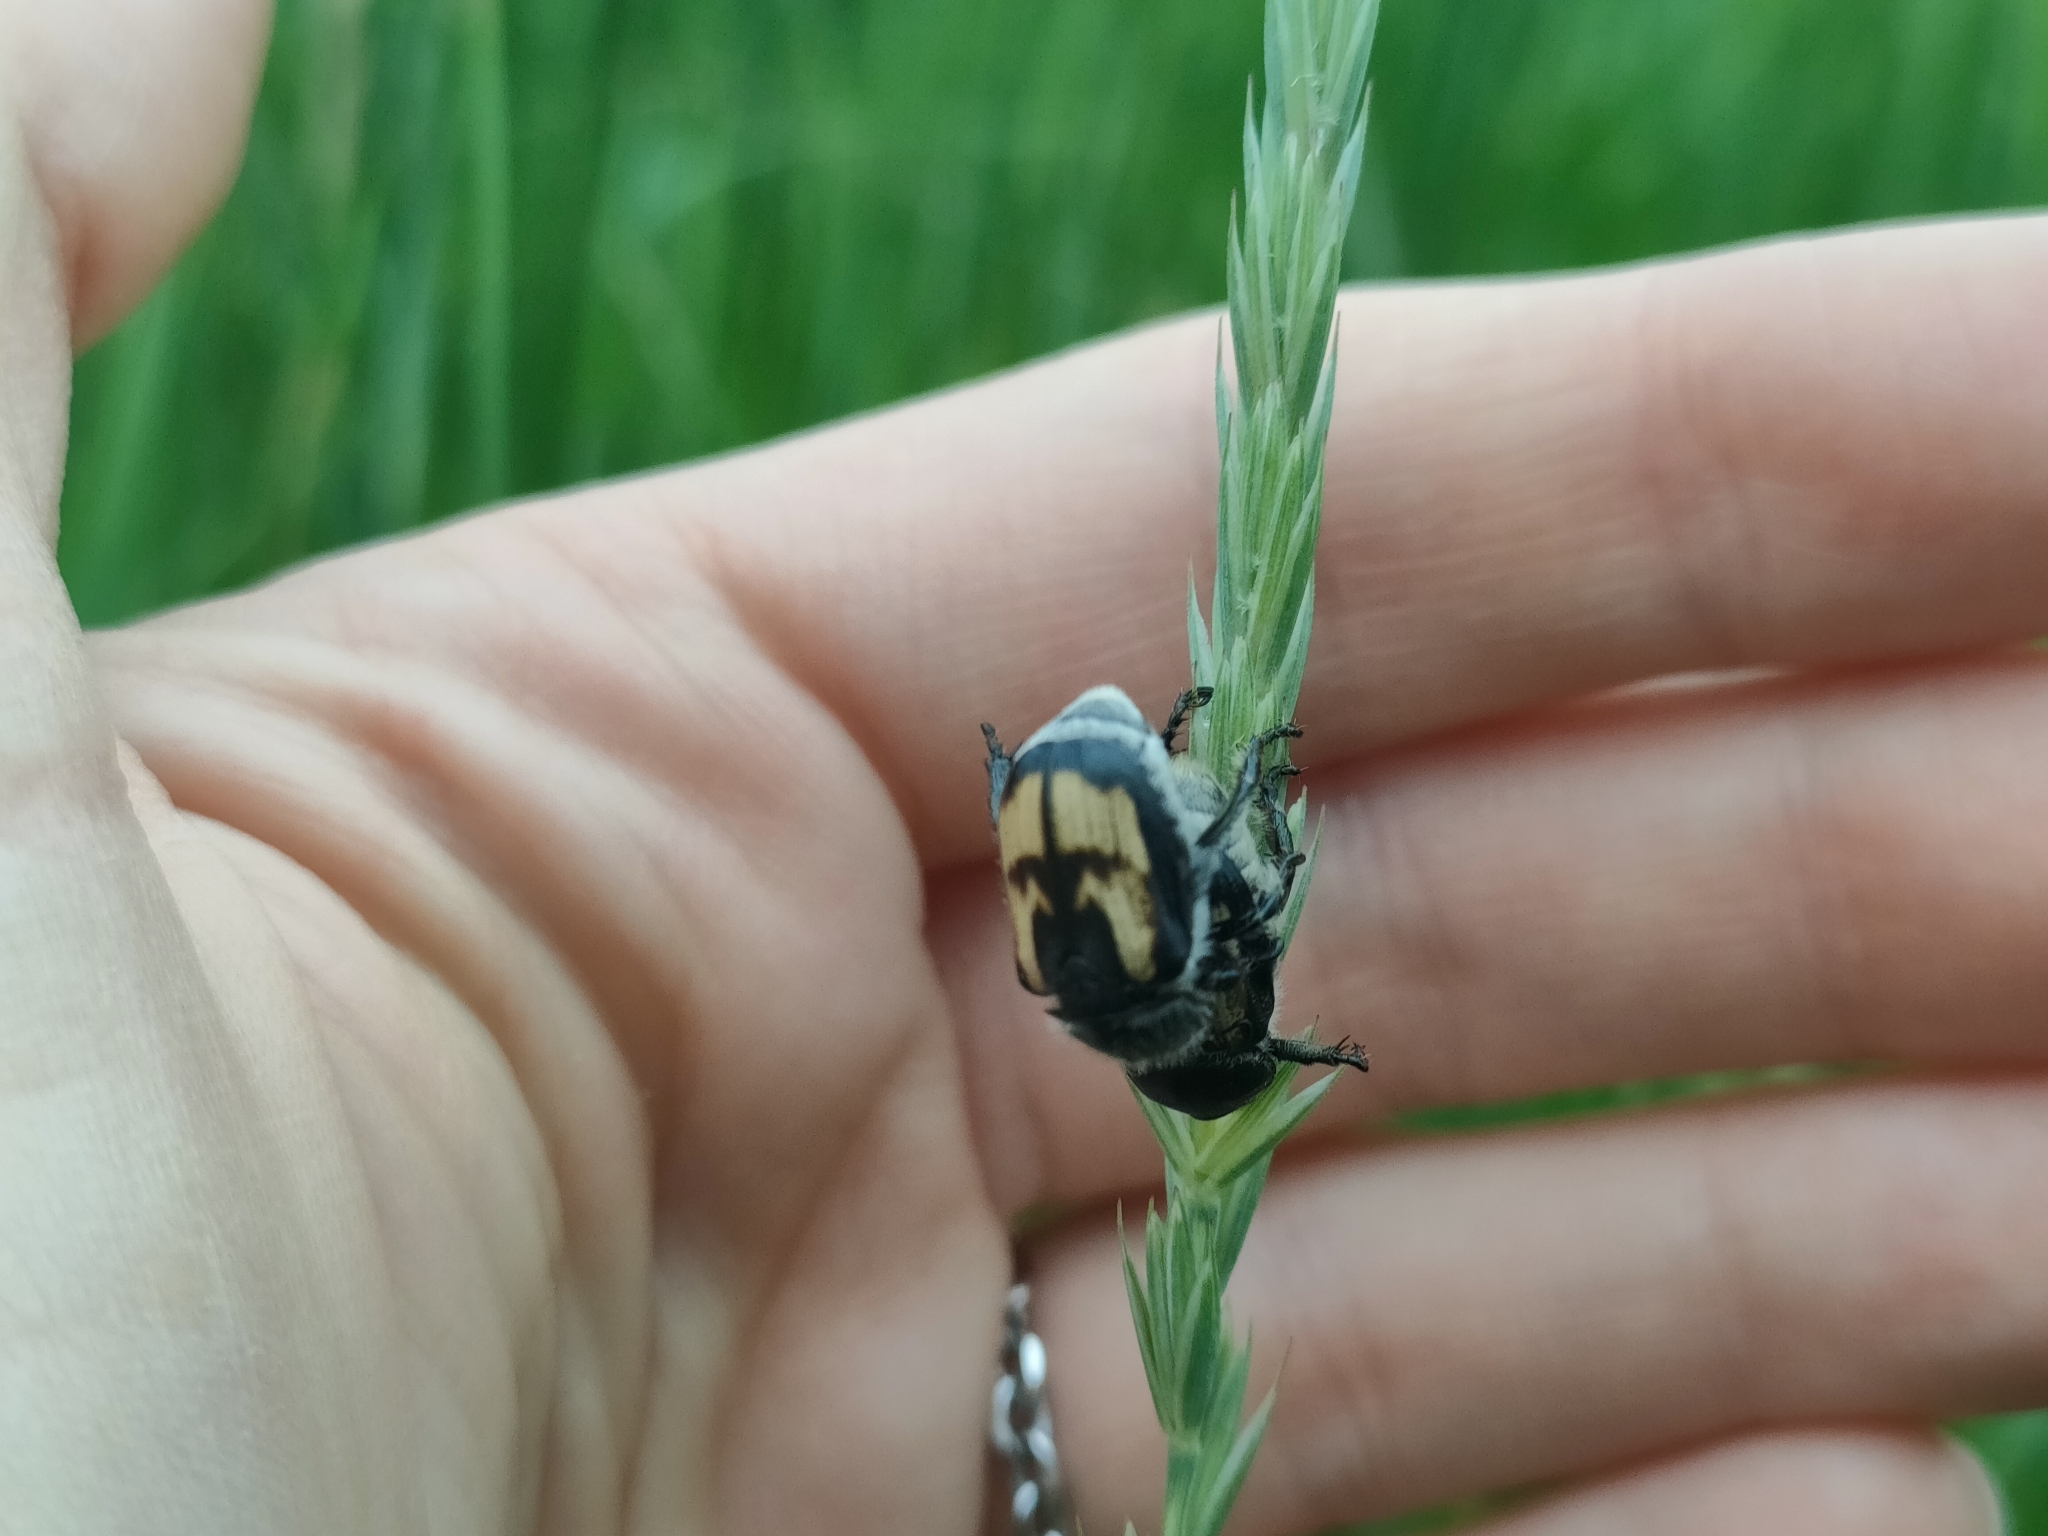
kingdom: Animalia
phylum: Arthropoda
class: Insecta
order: Coleoptera
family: Scarabaeidae
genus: Anisoplia
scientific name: Anisoplia agricola
